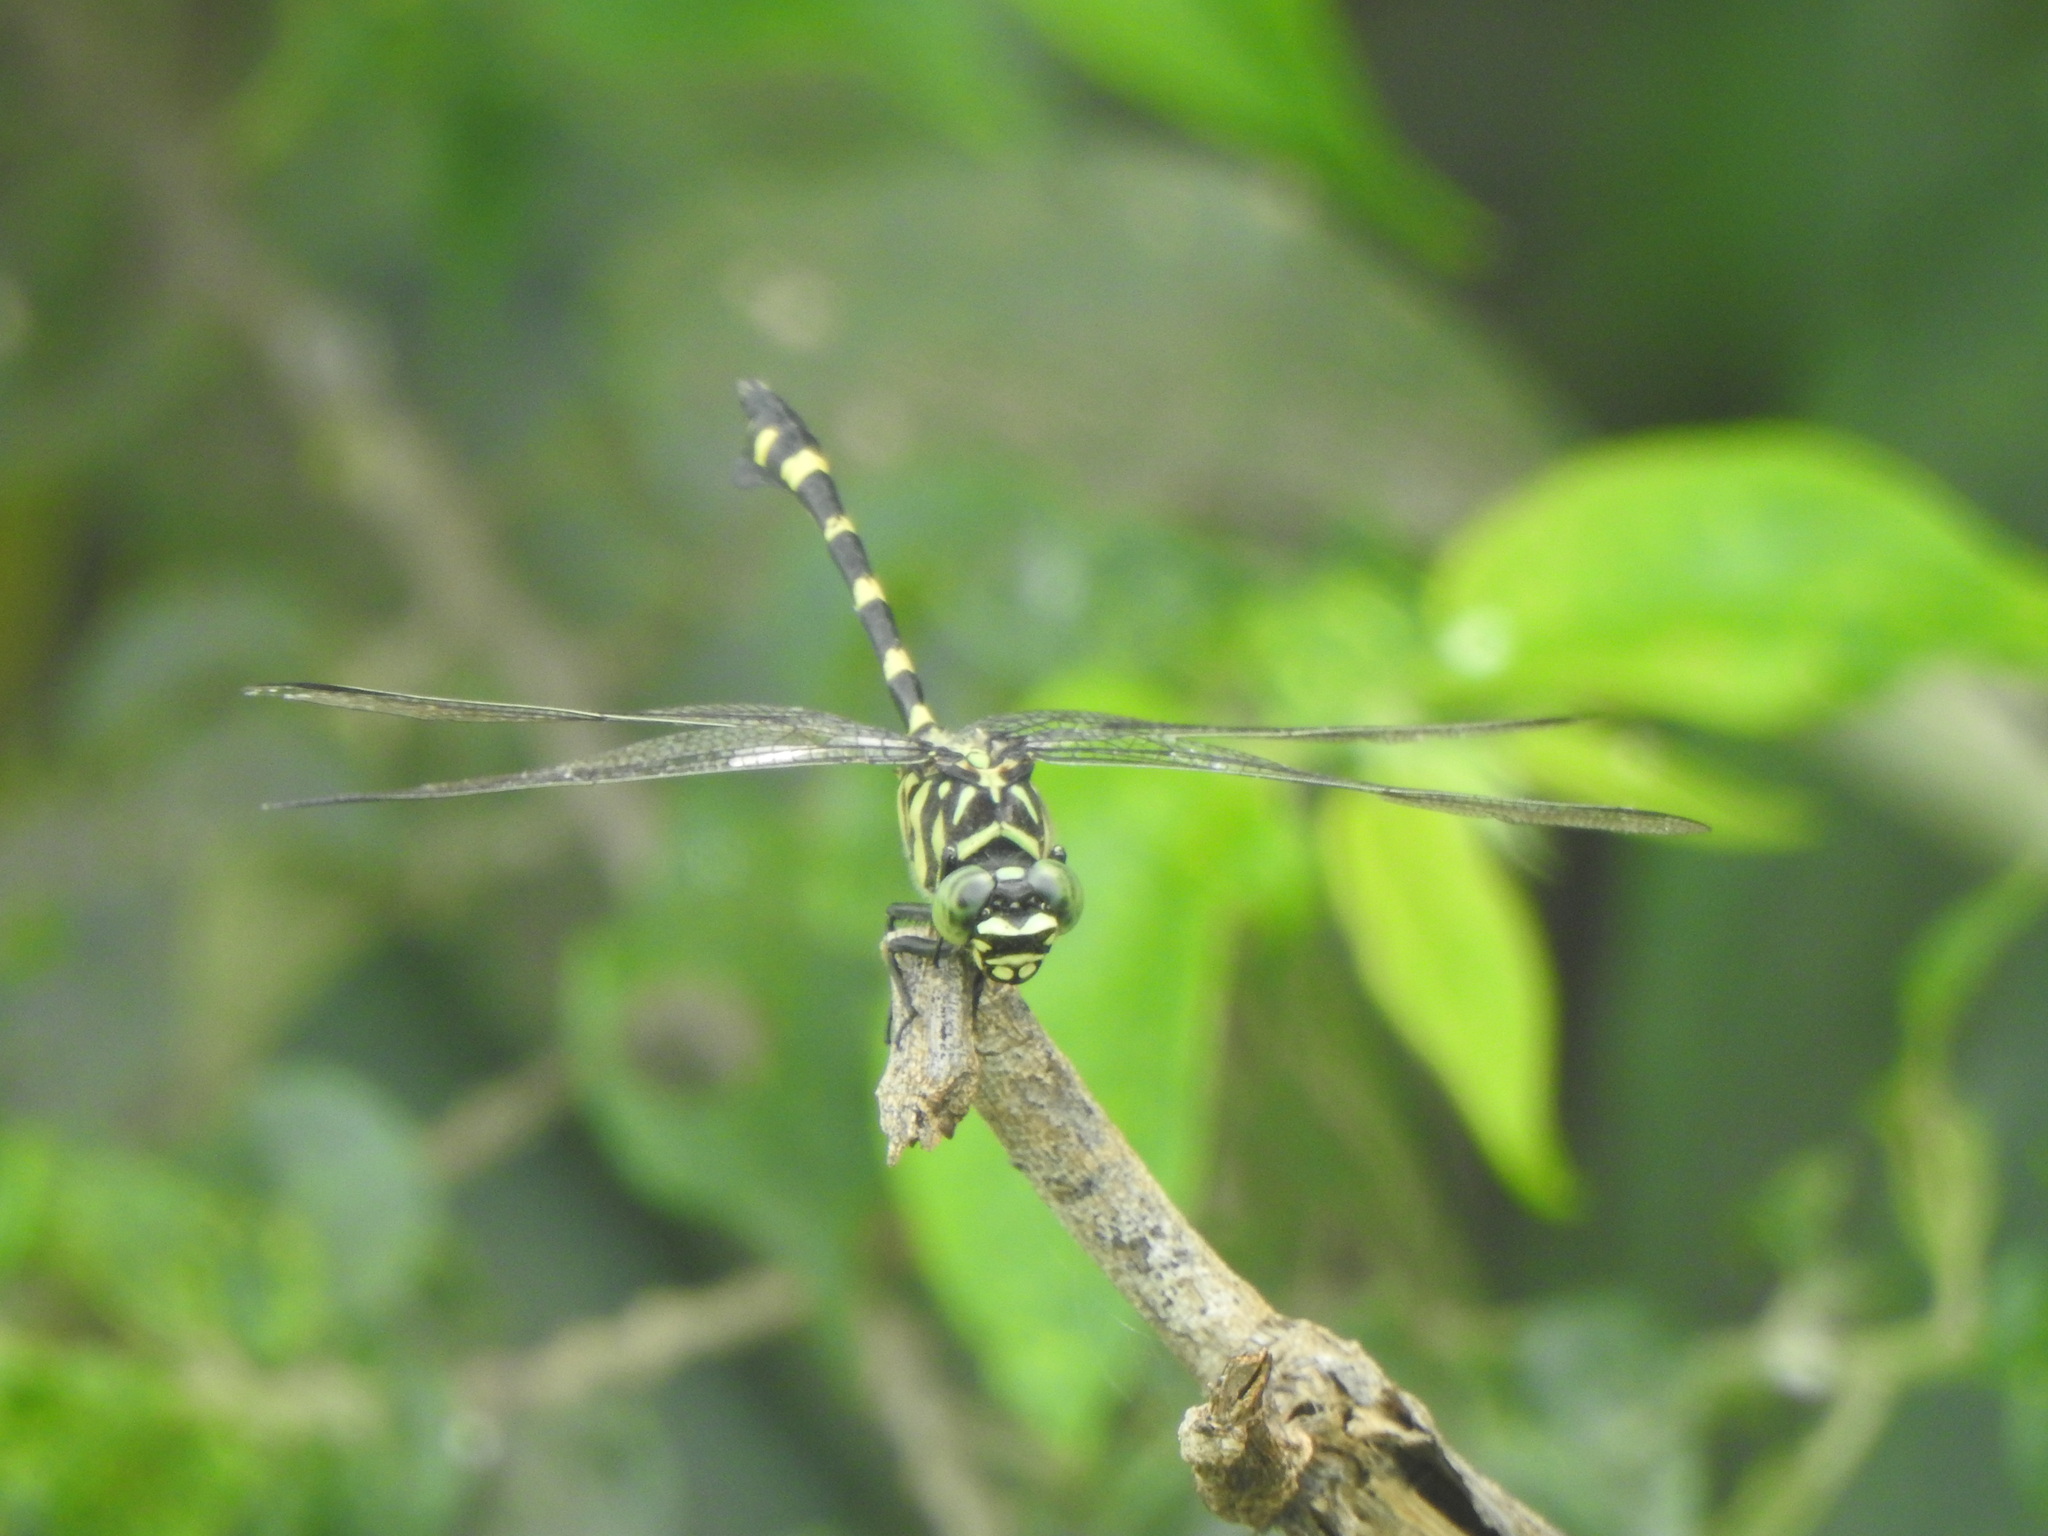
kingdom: Animalia
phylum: Arthropoda
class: Insecta
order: Odonata
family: Gomphidae
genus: Ictinogomphus
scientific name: Ictinogomphus rapax
